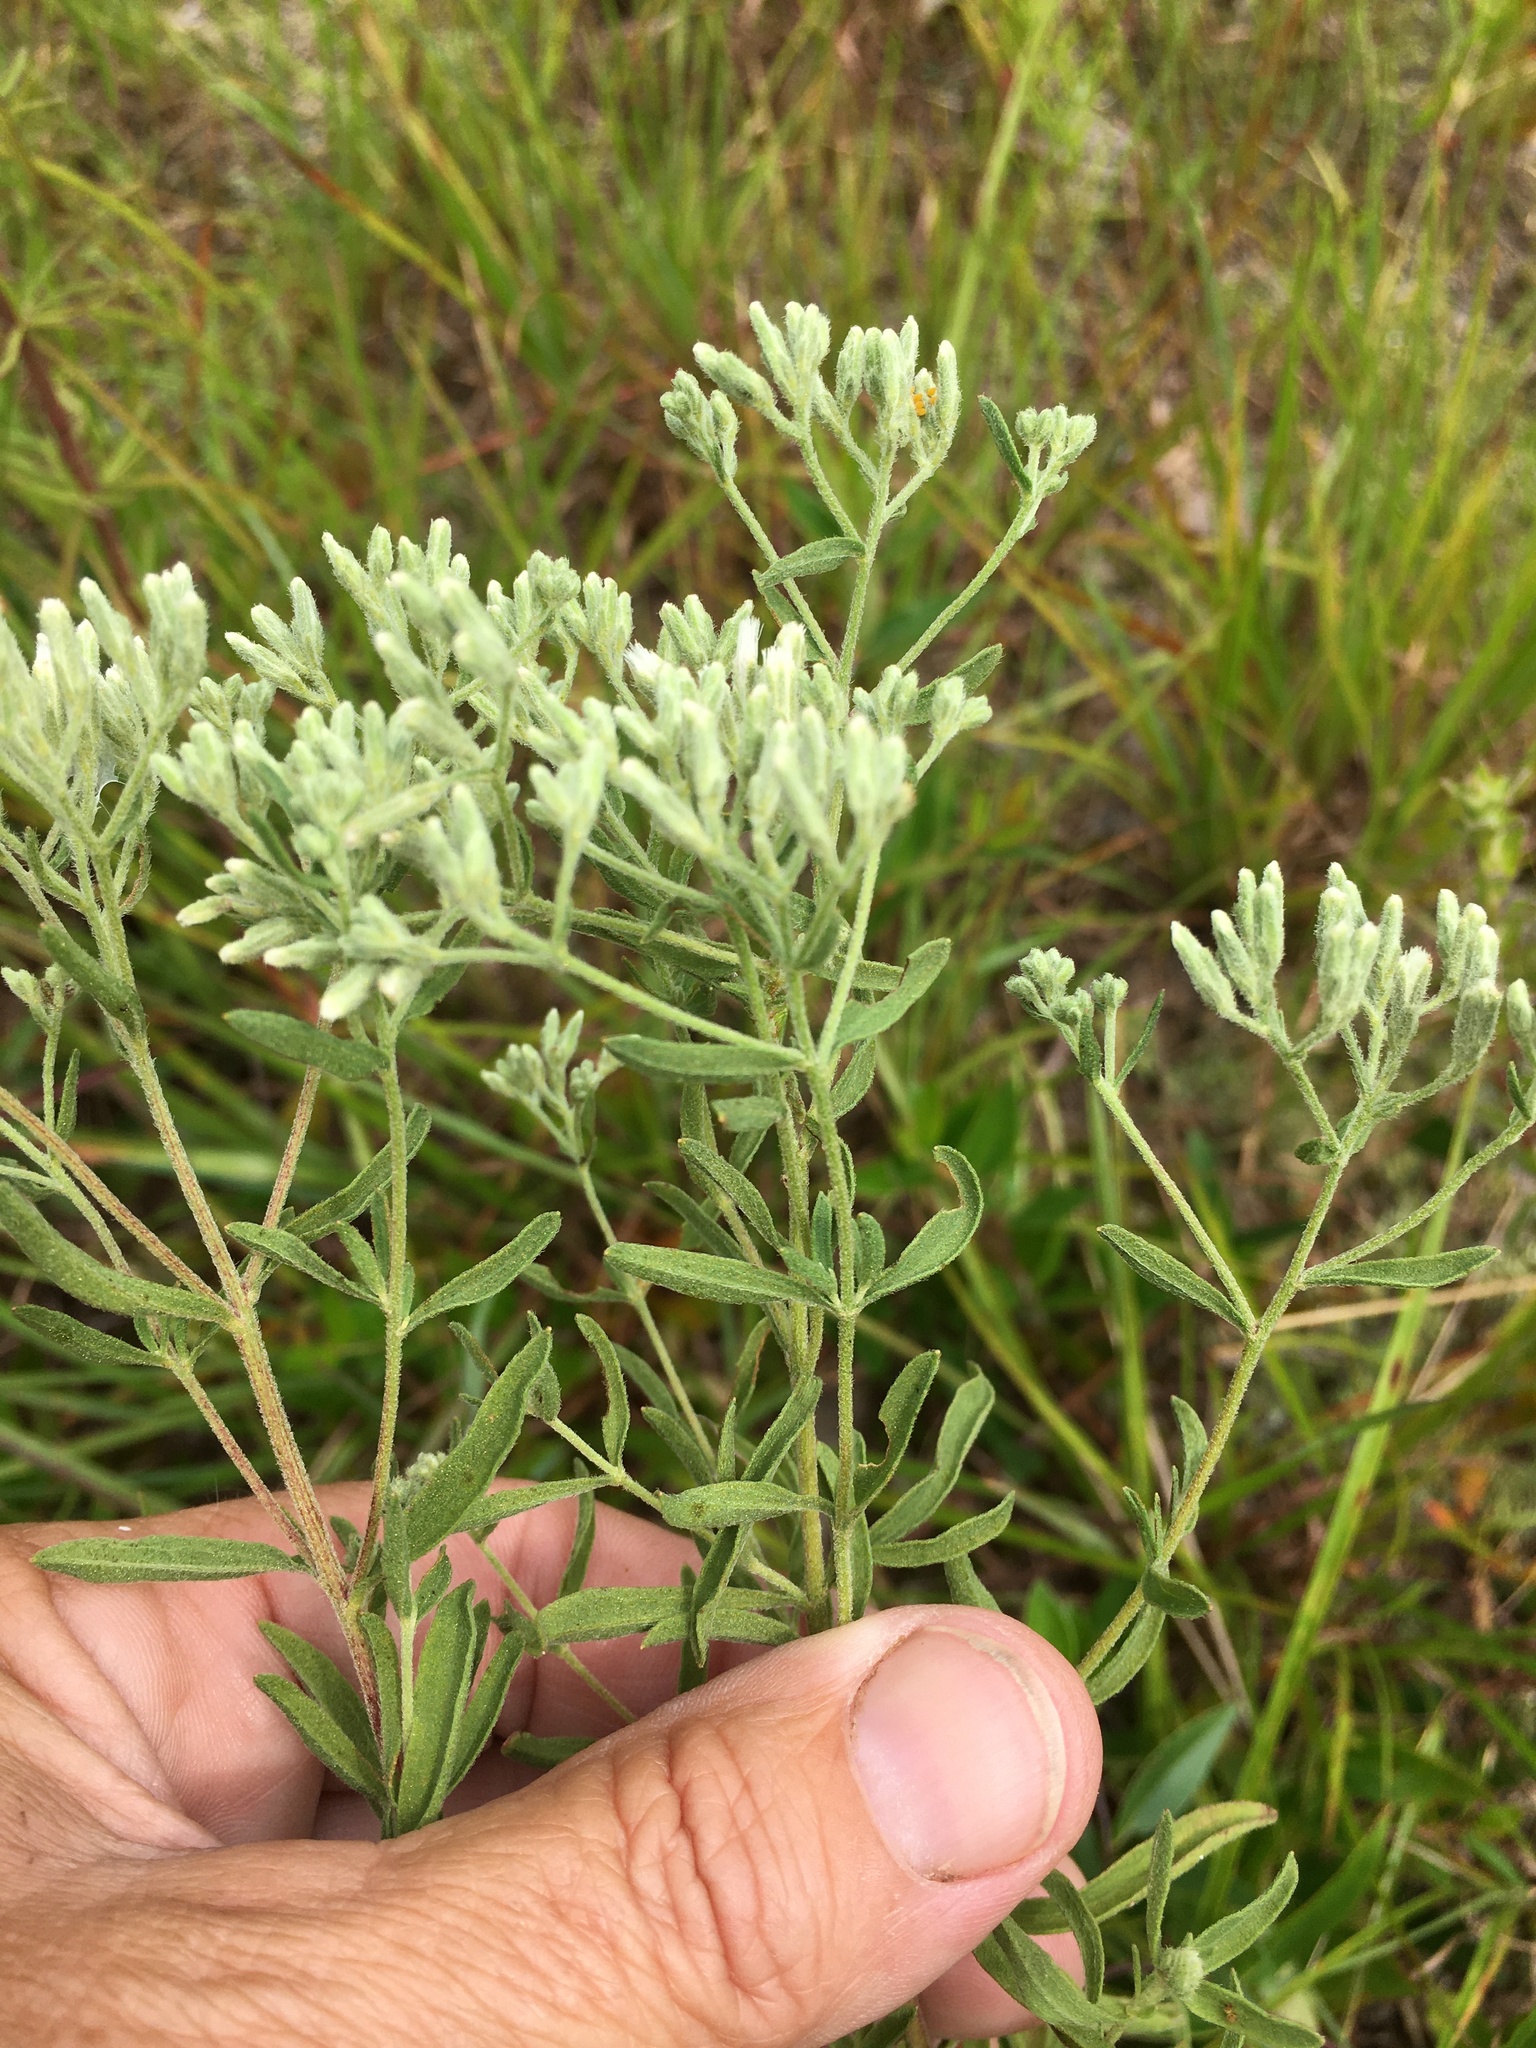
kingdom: Plantae
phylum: Tracheophyta
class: Magnoliopsida
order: Asterales
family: Asteraceae
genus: Eupatorium
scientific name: Eupatorium torreyanum
